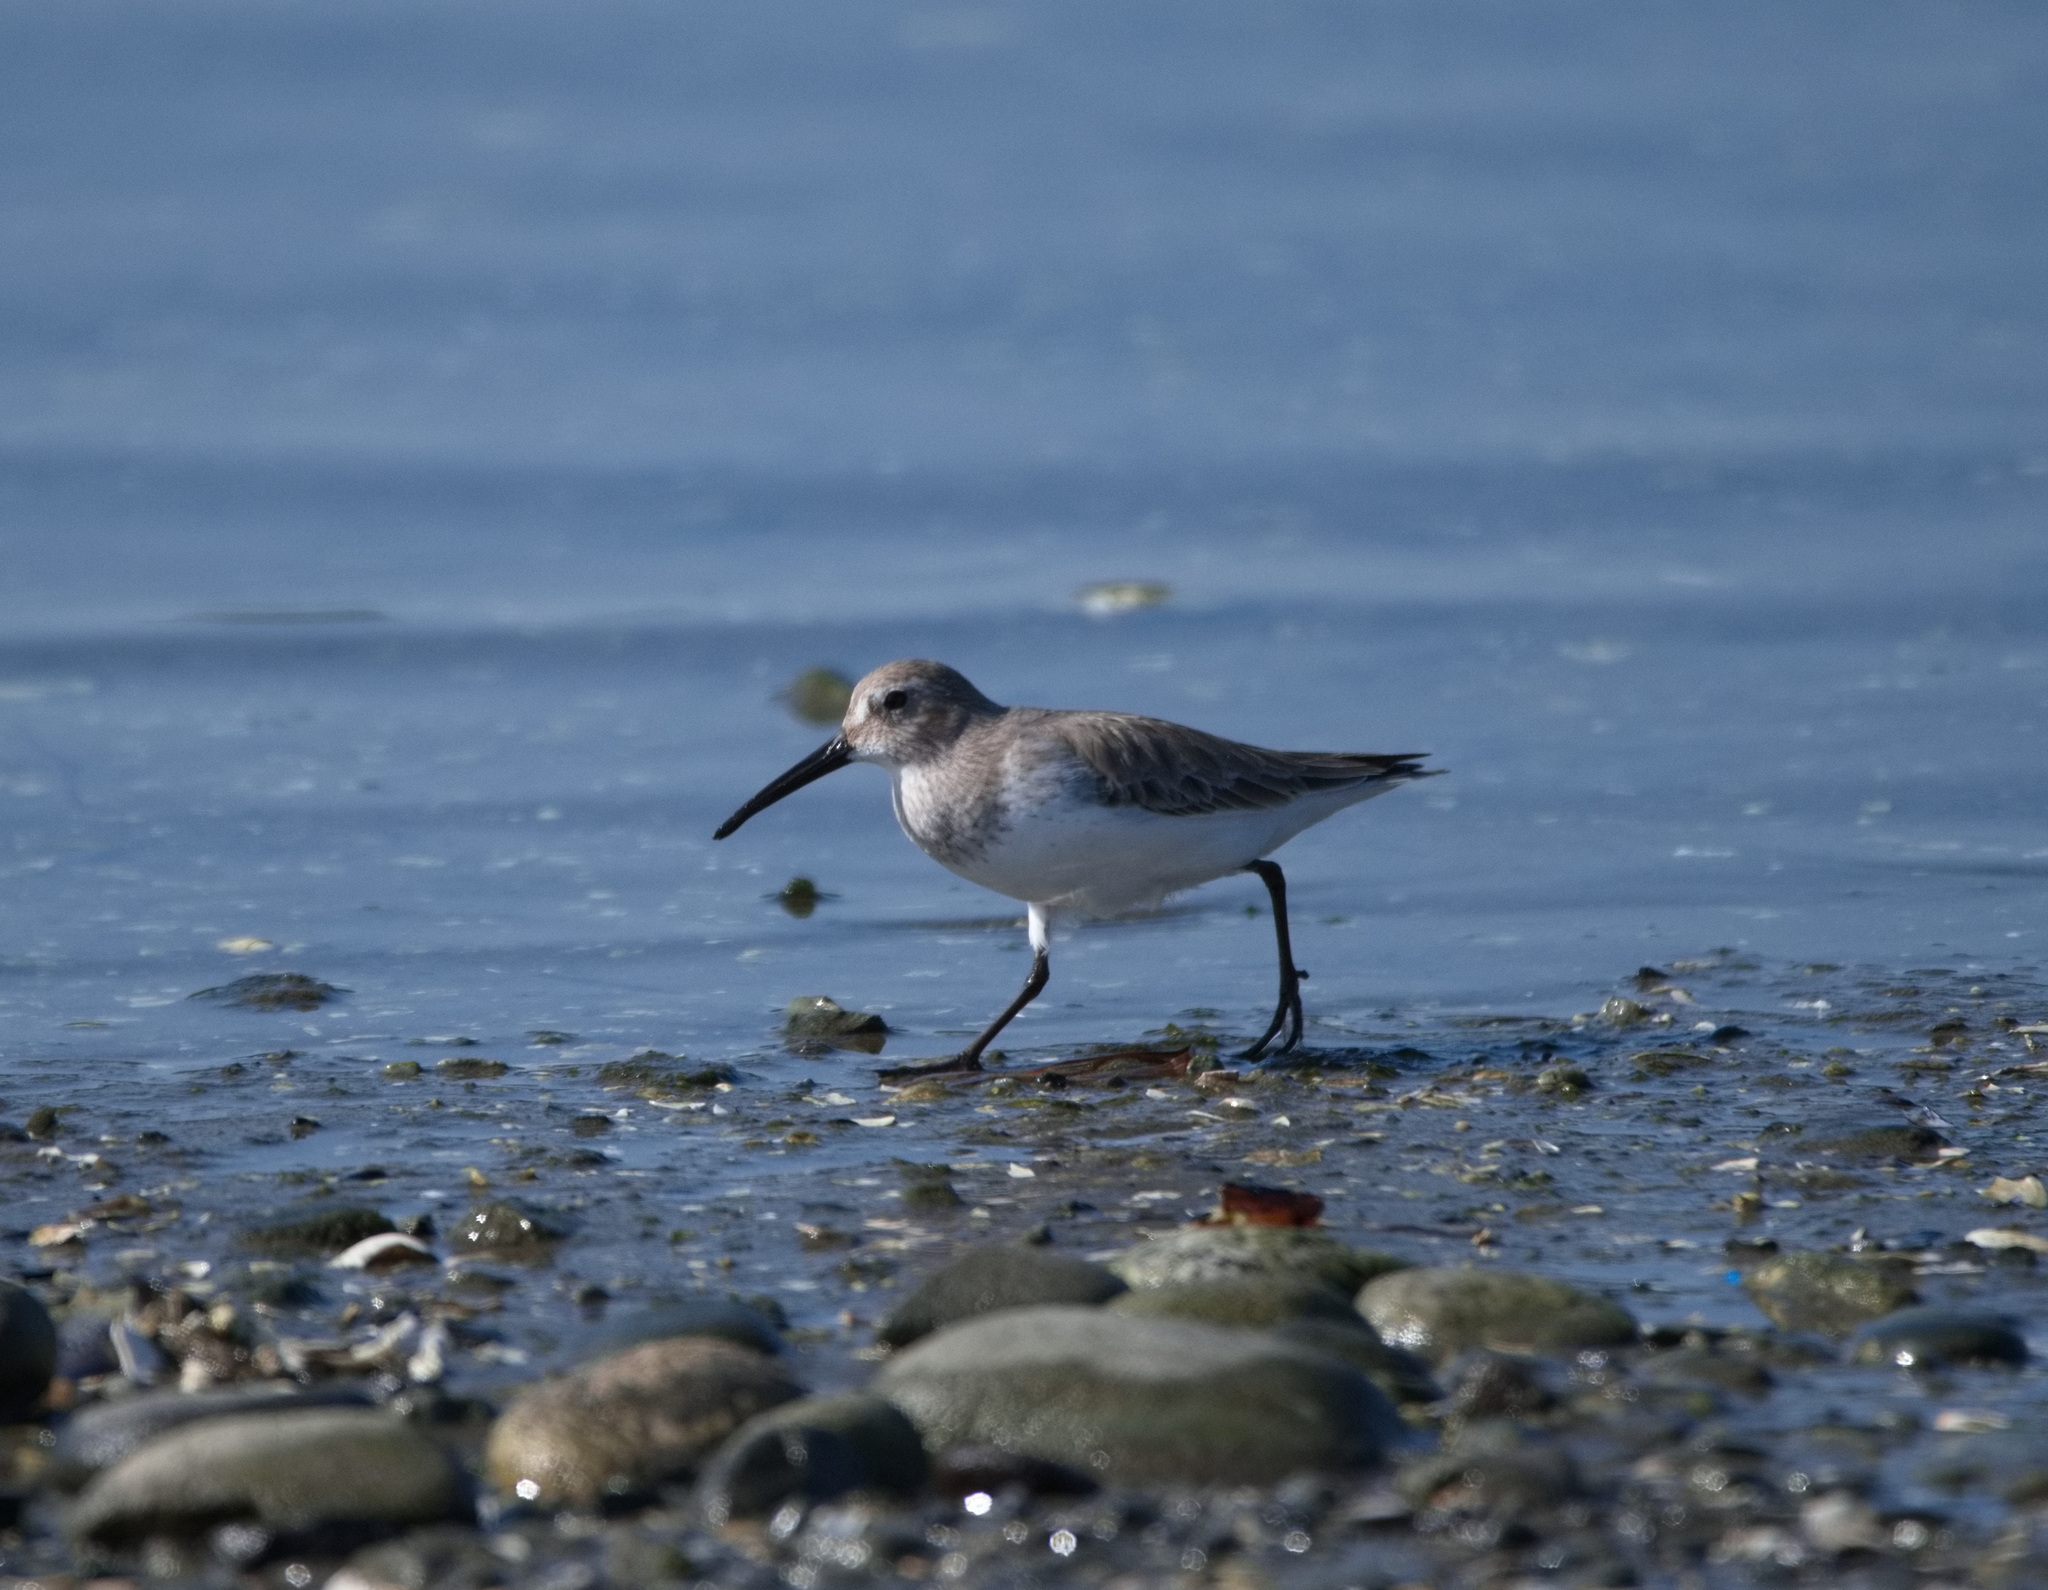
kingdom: Animalia
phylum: Chordata
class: Aves
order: Charadriiformes
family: Scolopacidae
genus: Calidris
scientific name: Calidris alpina
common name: Dunlin
